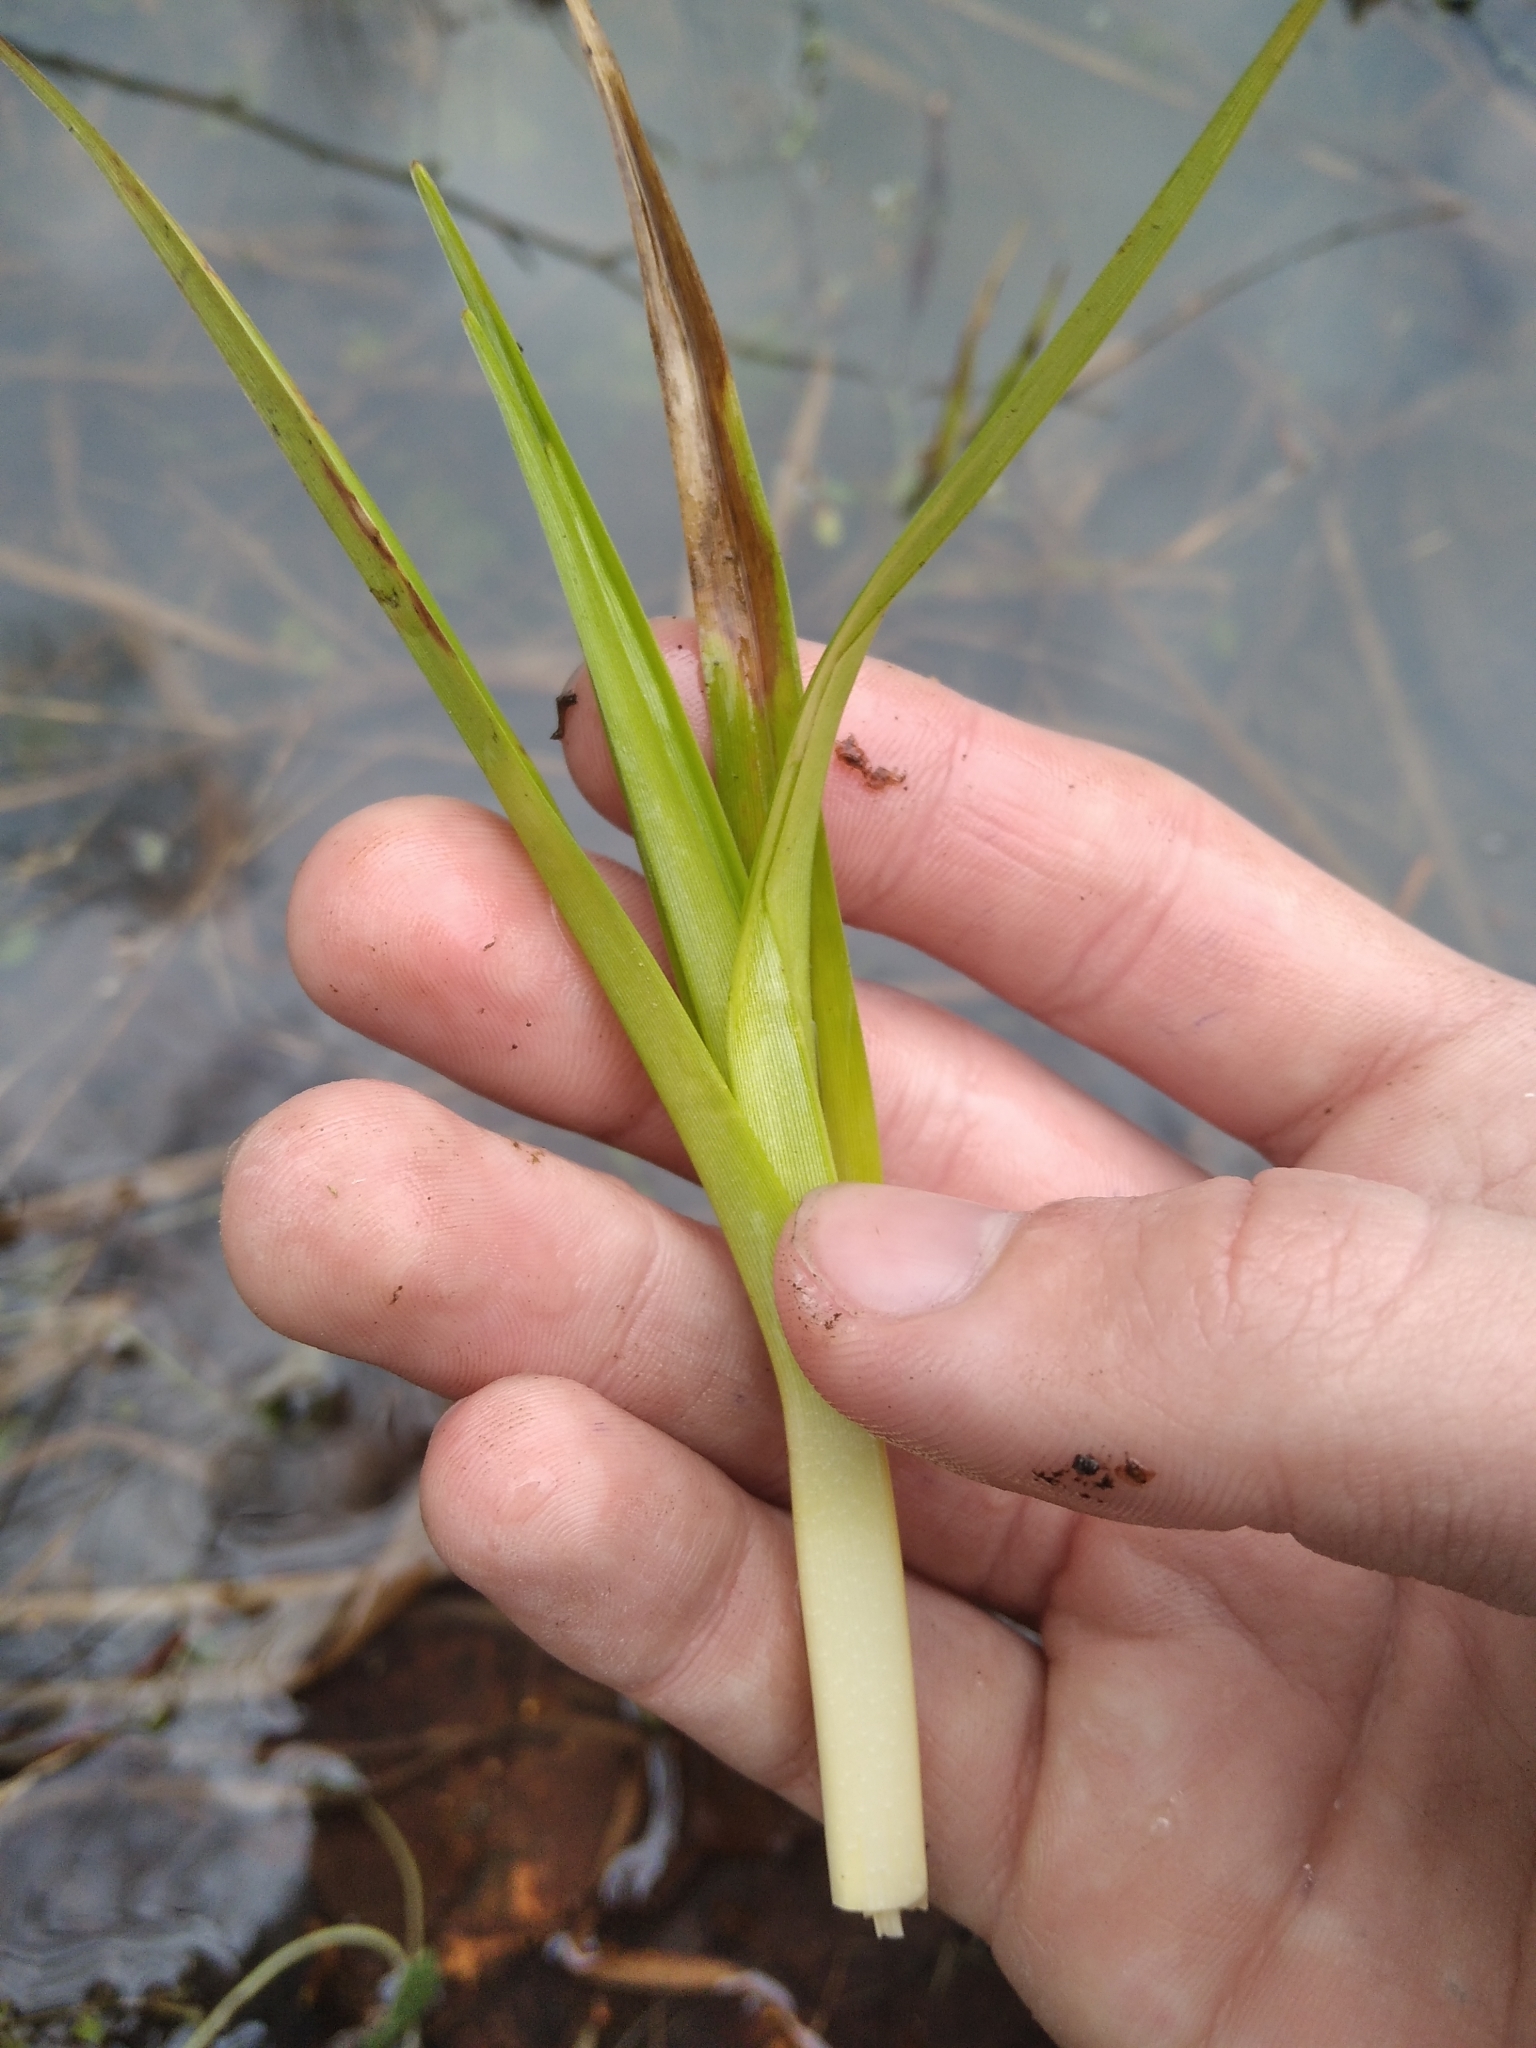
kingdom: Plantae
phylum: Tracheophyta
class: Liliopsida
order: Poales
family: Cyperaceae
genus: Scirpus
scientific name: Scirpus sylvaticus
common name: Wood club-rush
